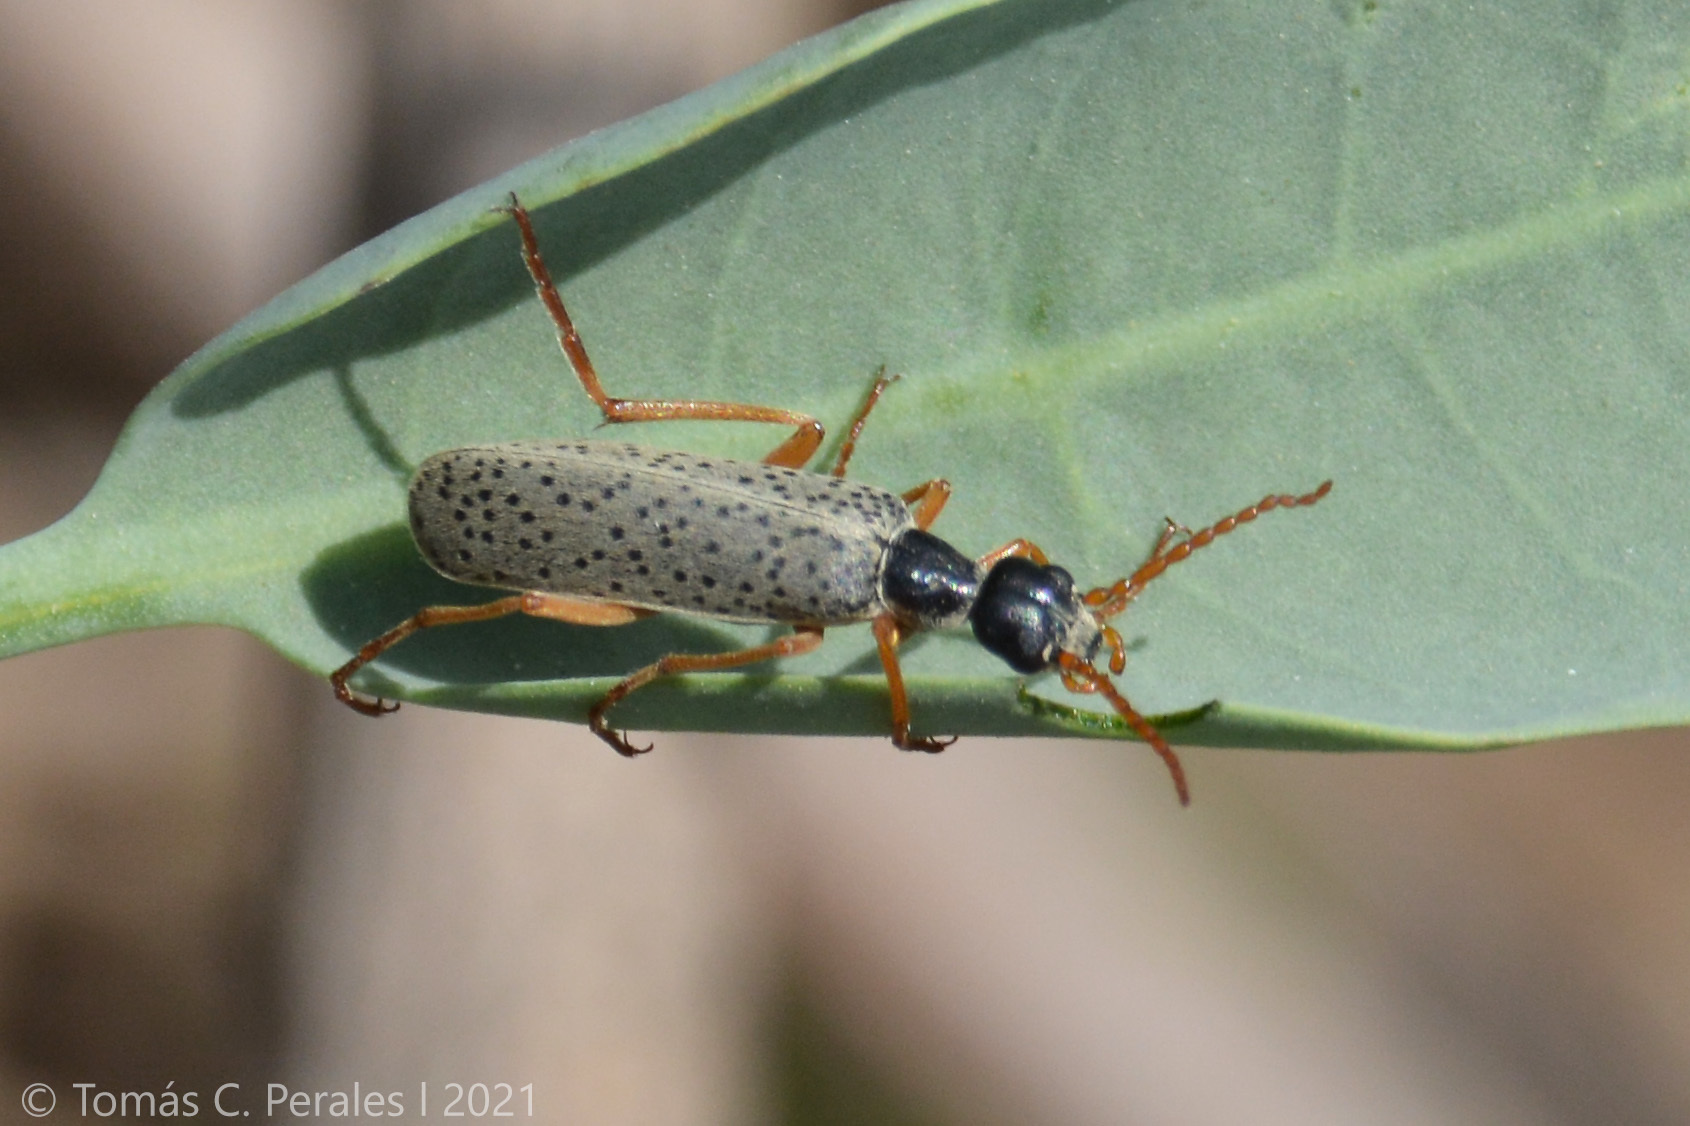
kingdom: Animalia
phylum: Arthropoda
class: Insecta
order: Coleoptera
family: Meloidae
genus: Epicauta
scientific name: Epicauta
